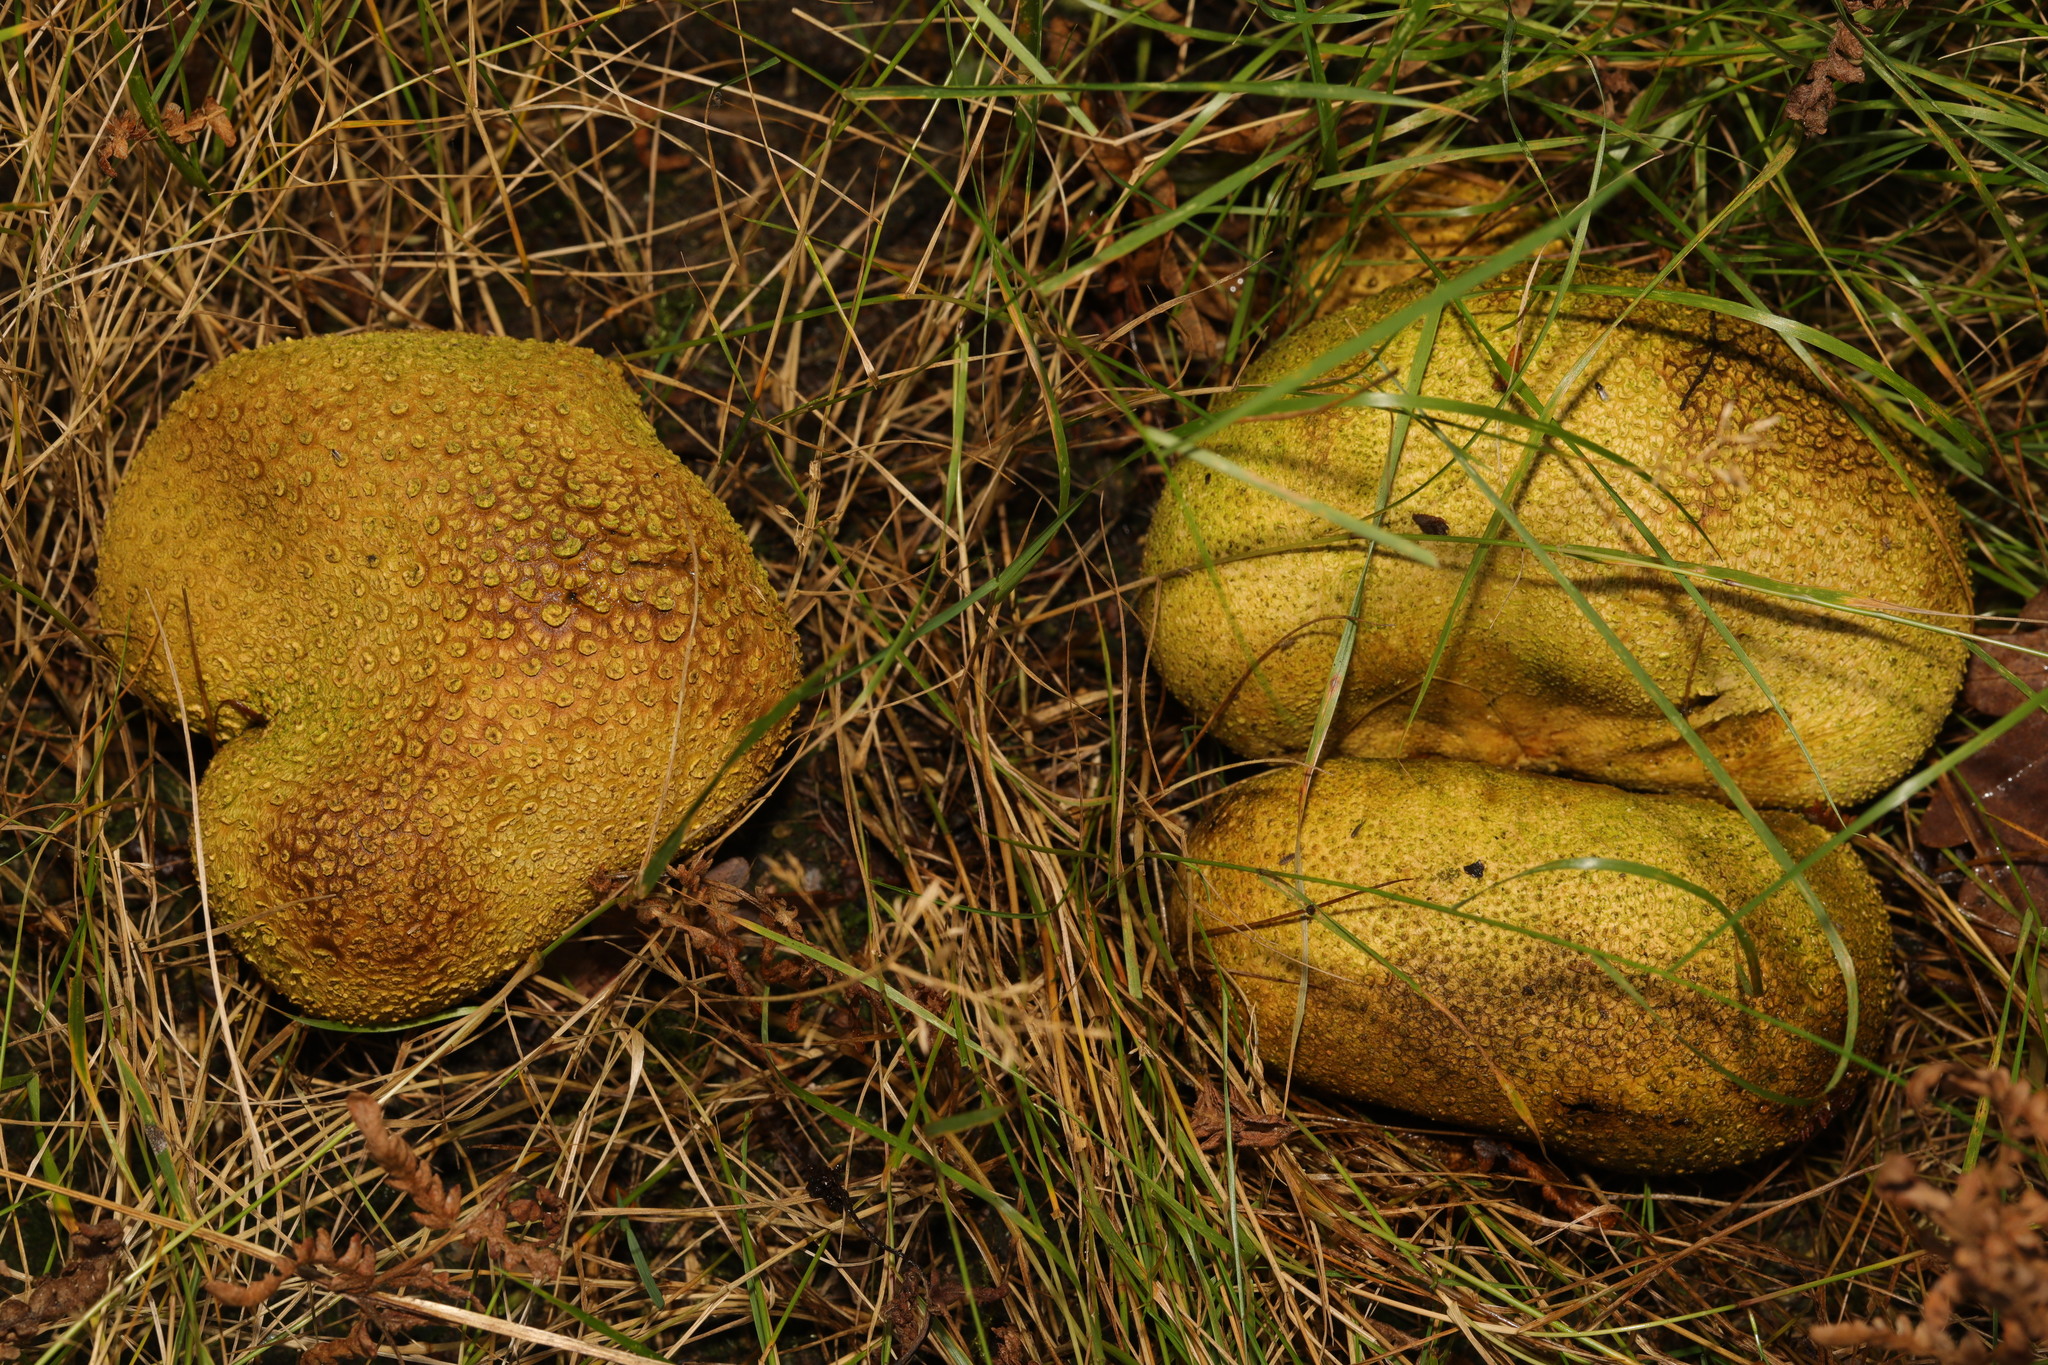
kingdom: Fungi
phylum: Basidiomycota
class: Agaricomycetes
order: Boletales
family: Sclerodermataceae
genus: Scleroderma
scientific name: Scleroderma citrinum
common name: Common earthball
